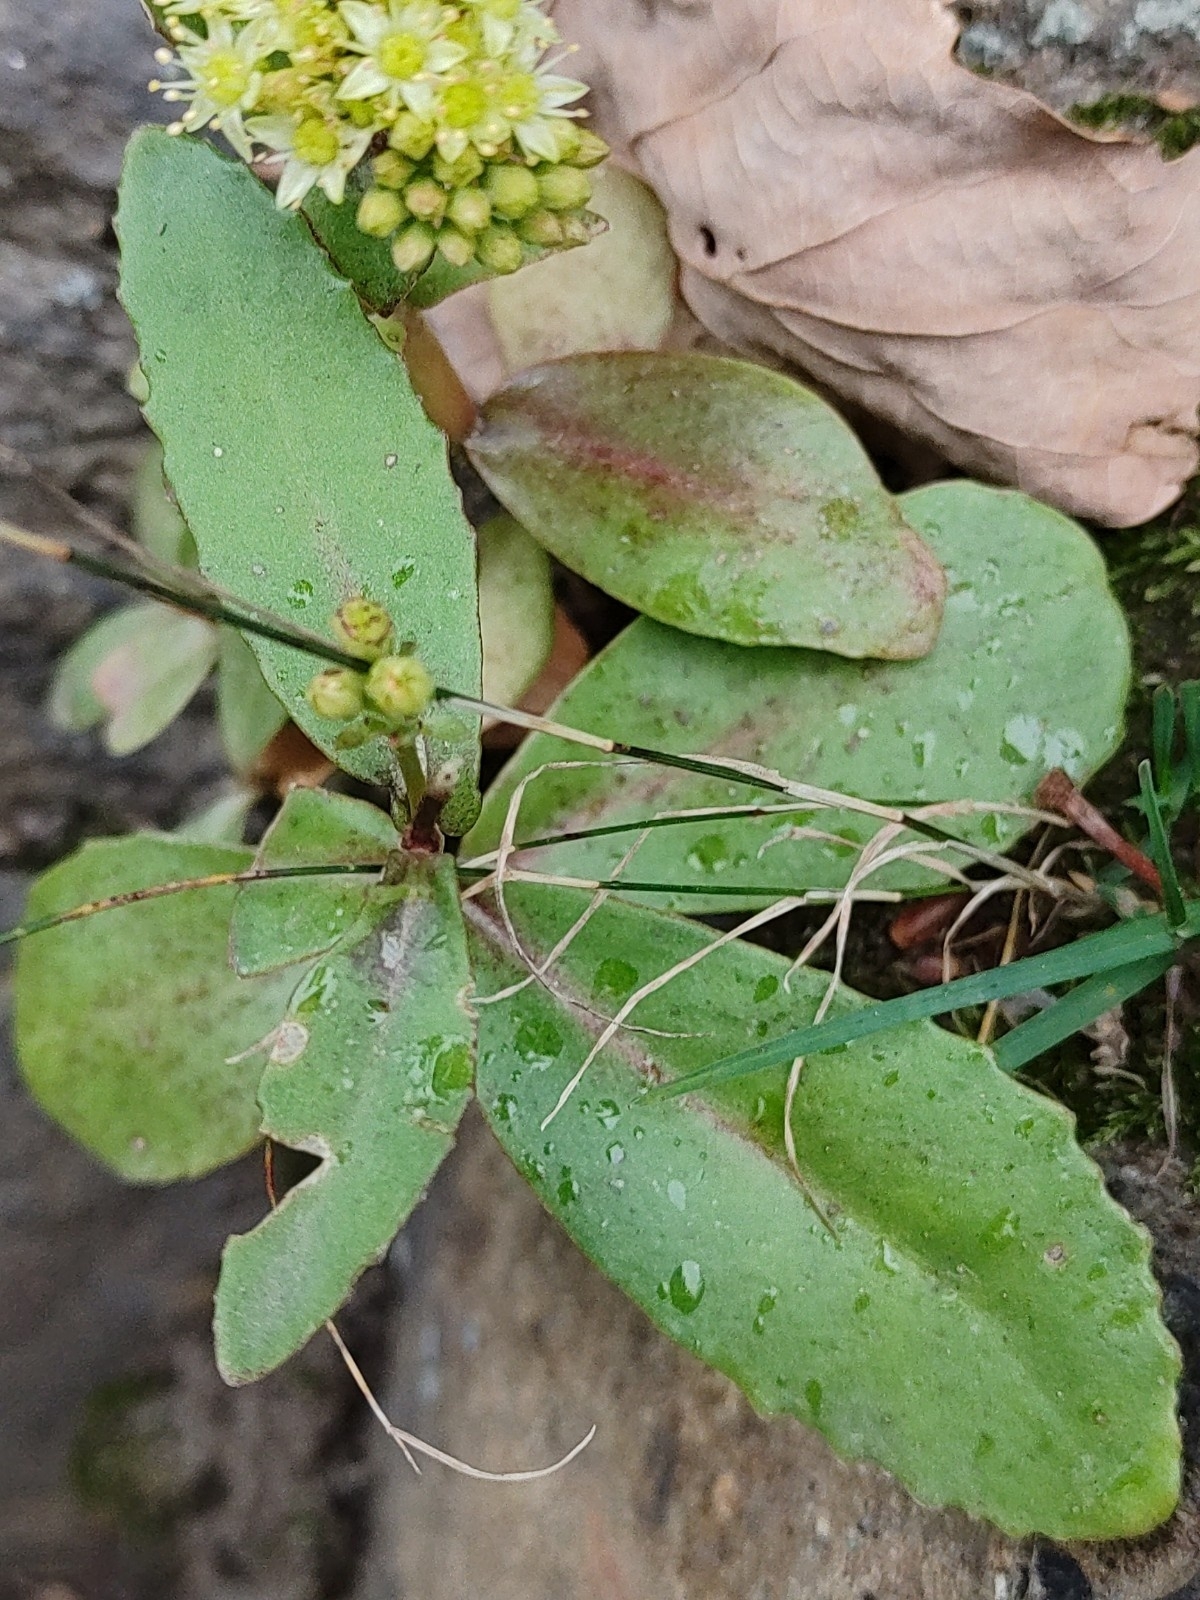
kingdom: Plantae
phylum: Tracheophyta
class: Magnoliopsida
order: Saxifragales
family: Crassulaceae
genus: Hylotelephium
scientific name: Hylotelephium maximum
